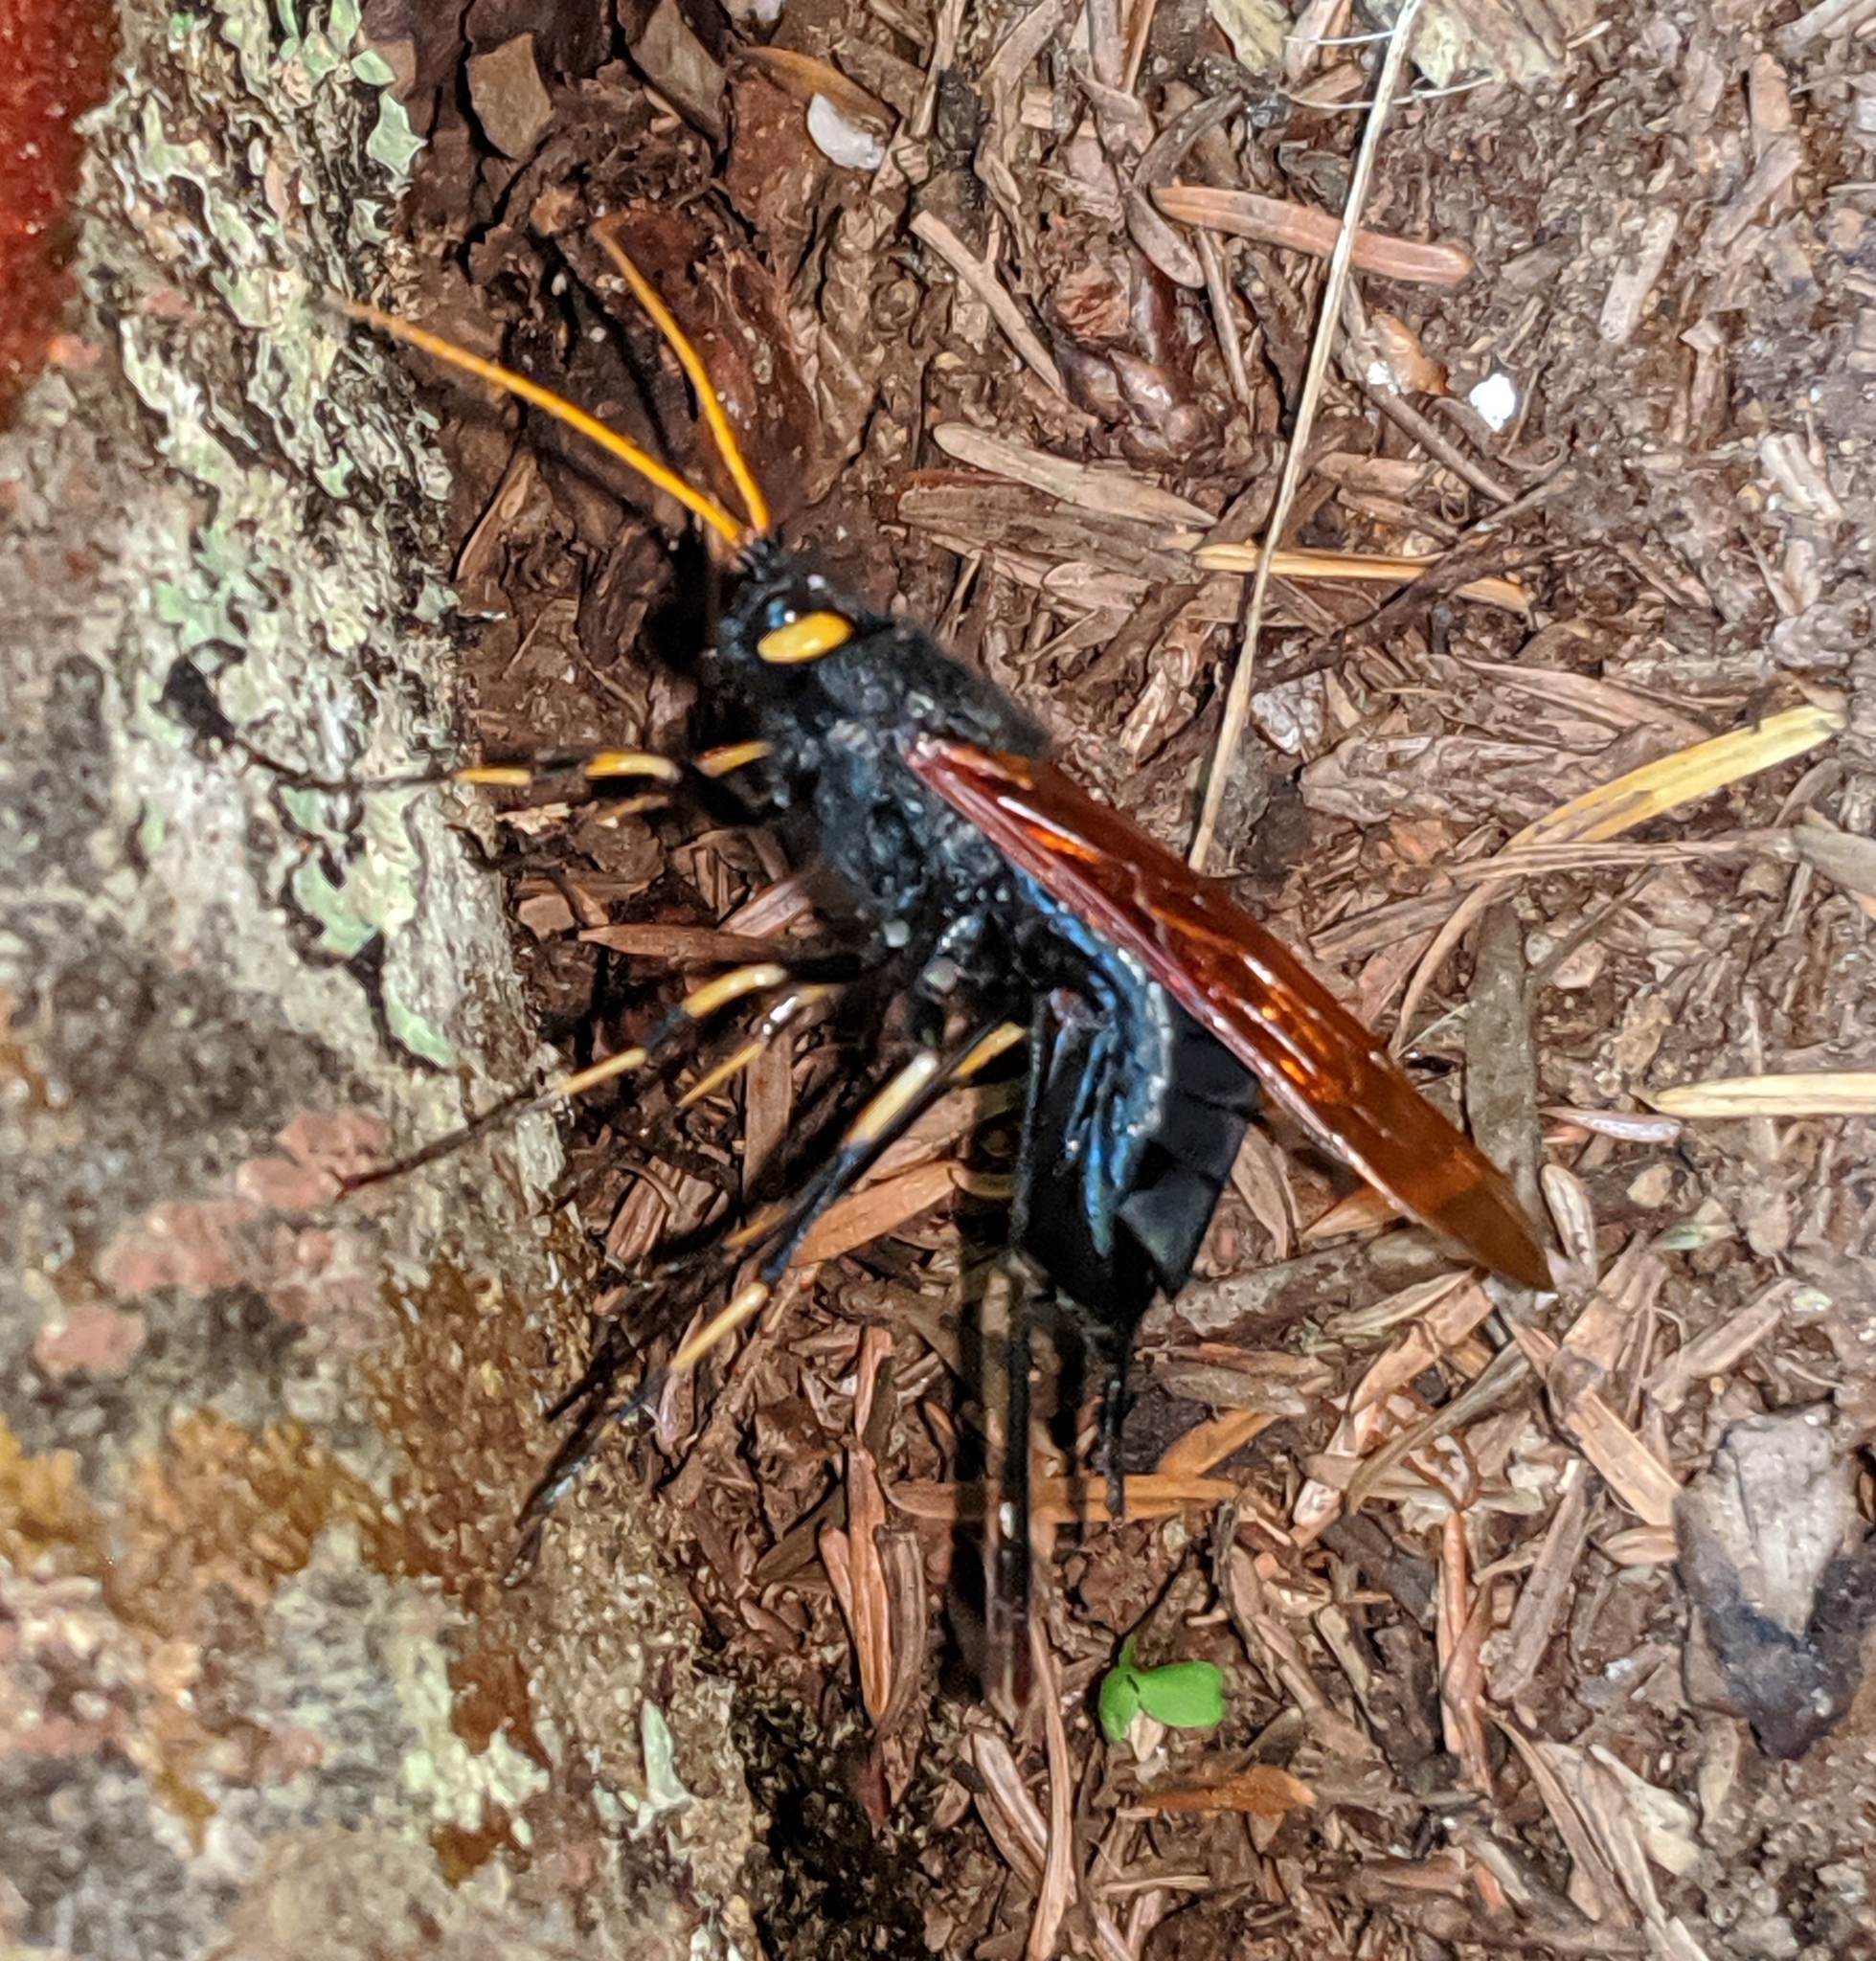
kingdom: Animalia
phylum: Arthropoda
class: Insecta
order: Hymenoptera
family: Siricidae
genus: Urocerus
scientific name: Urocerus californicus
